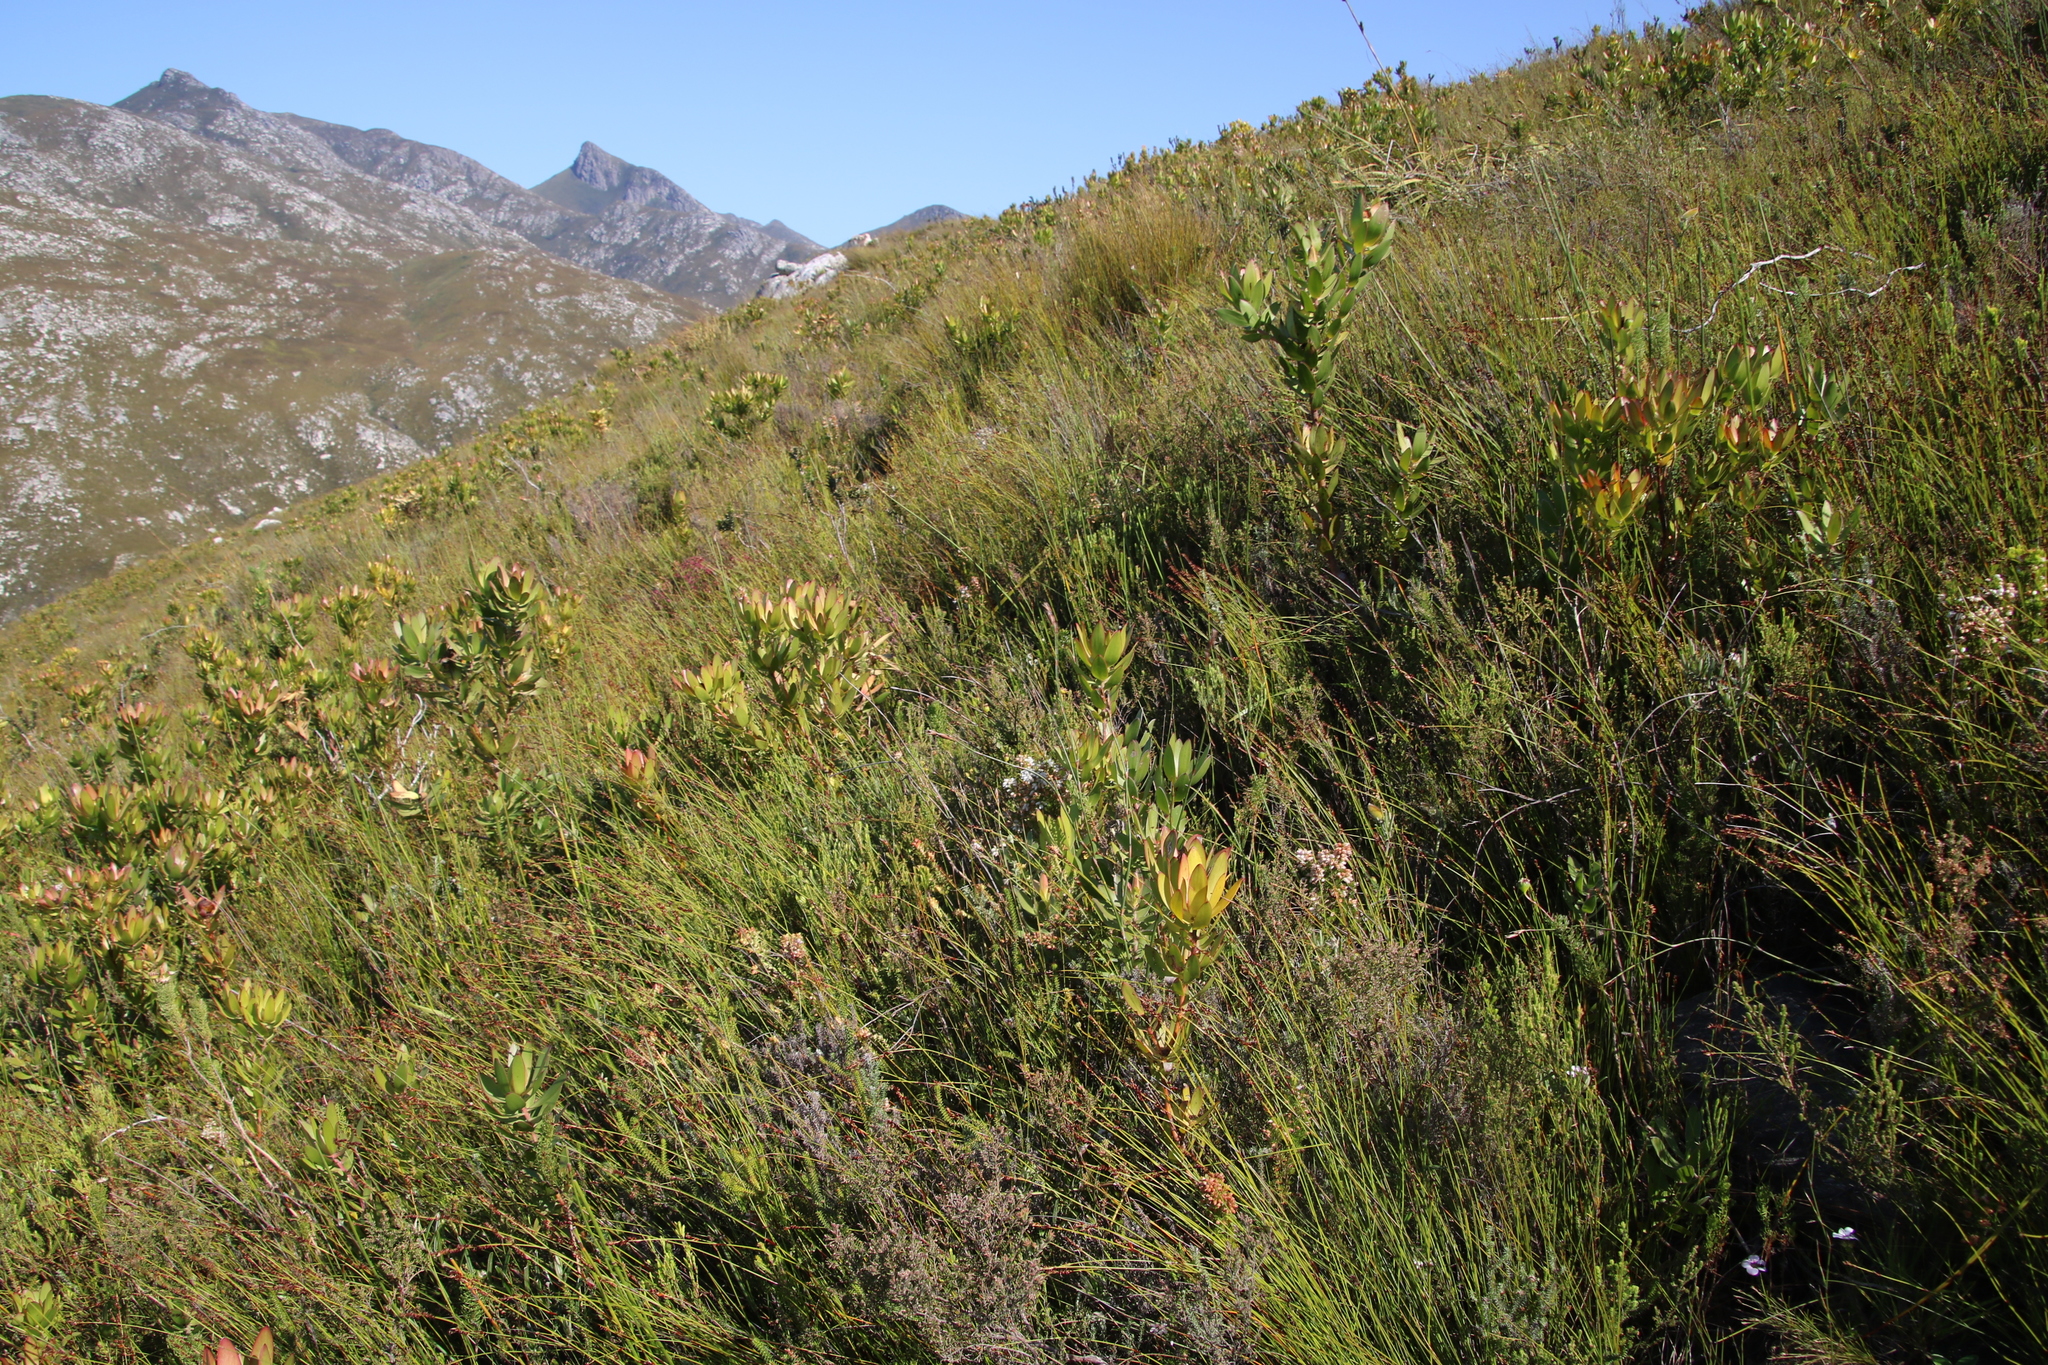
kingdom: Plantae
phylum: Tracheophyta
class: Magnoliopsida
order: Proteales
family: Proteaceae
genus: Leucadendron
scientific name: Leucadendron gandogeri
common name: Broad-leaf conebush
